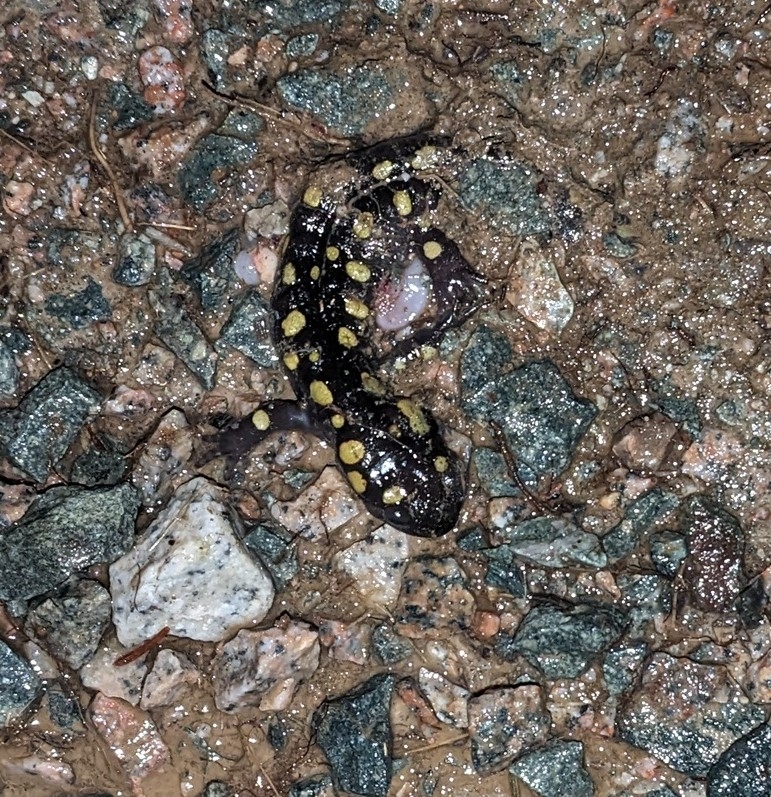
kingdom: Animalia
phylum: Chordata
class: Amphibia
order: Caudata
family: Ambystomatidae
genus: Ambystoma
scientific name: Ambystoma maculatum
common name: Spotted salamander
